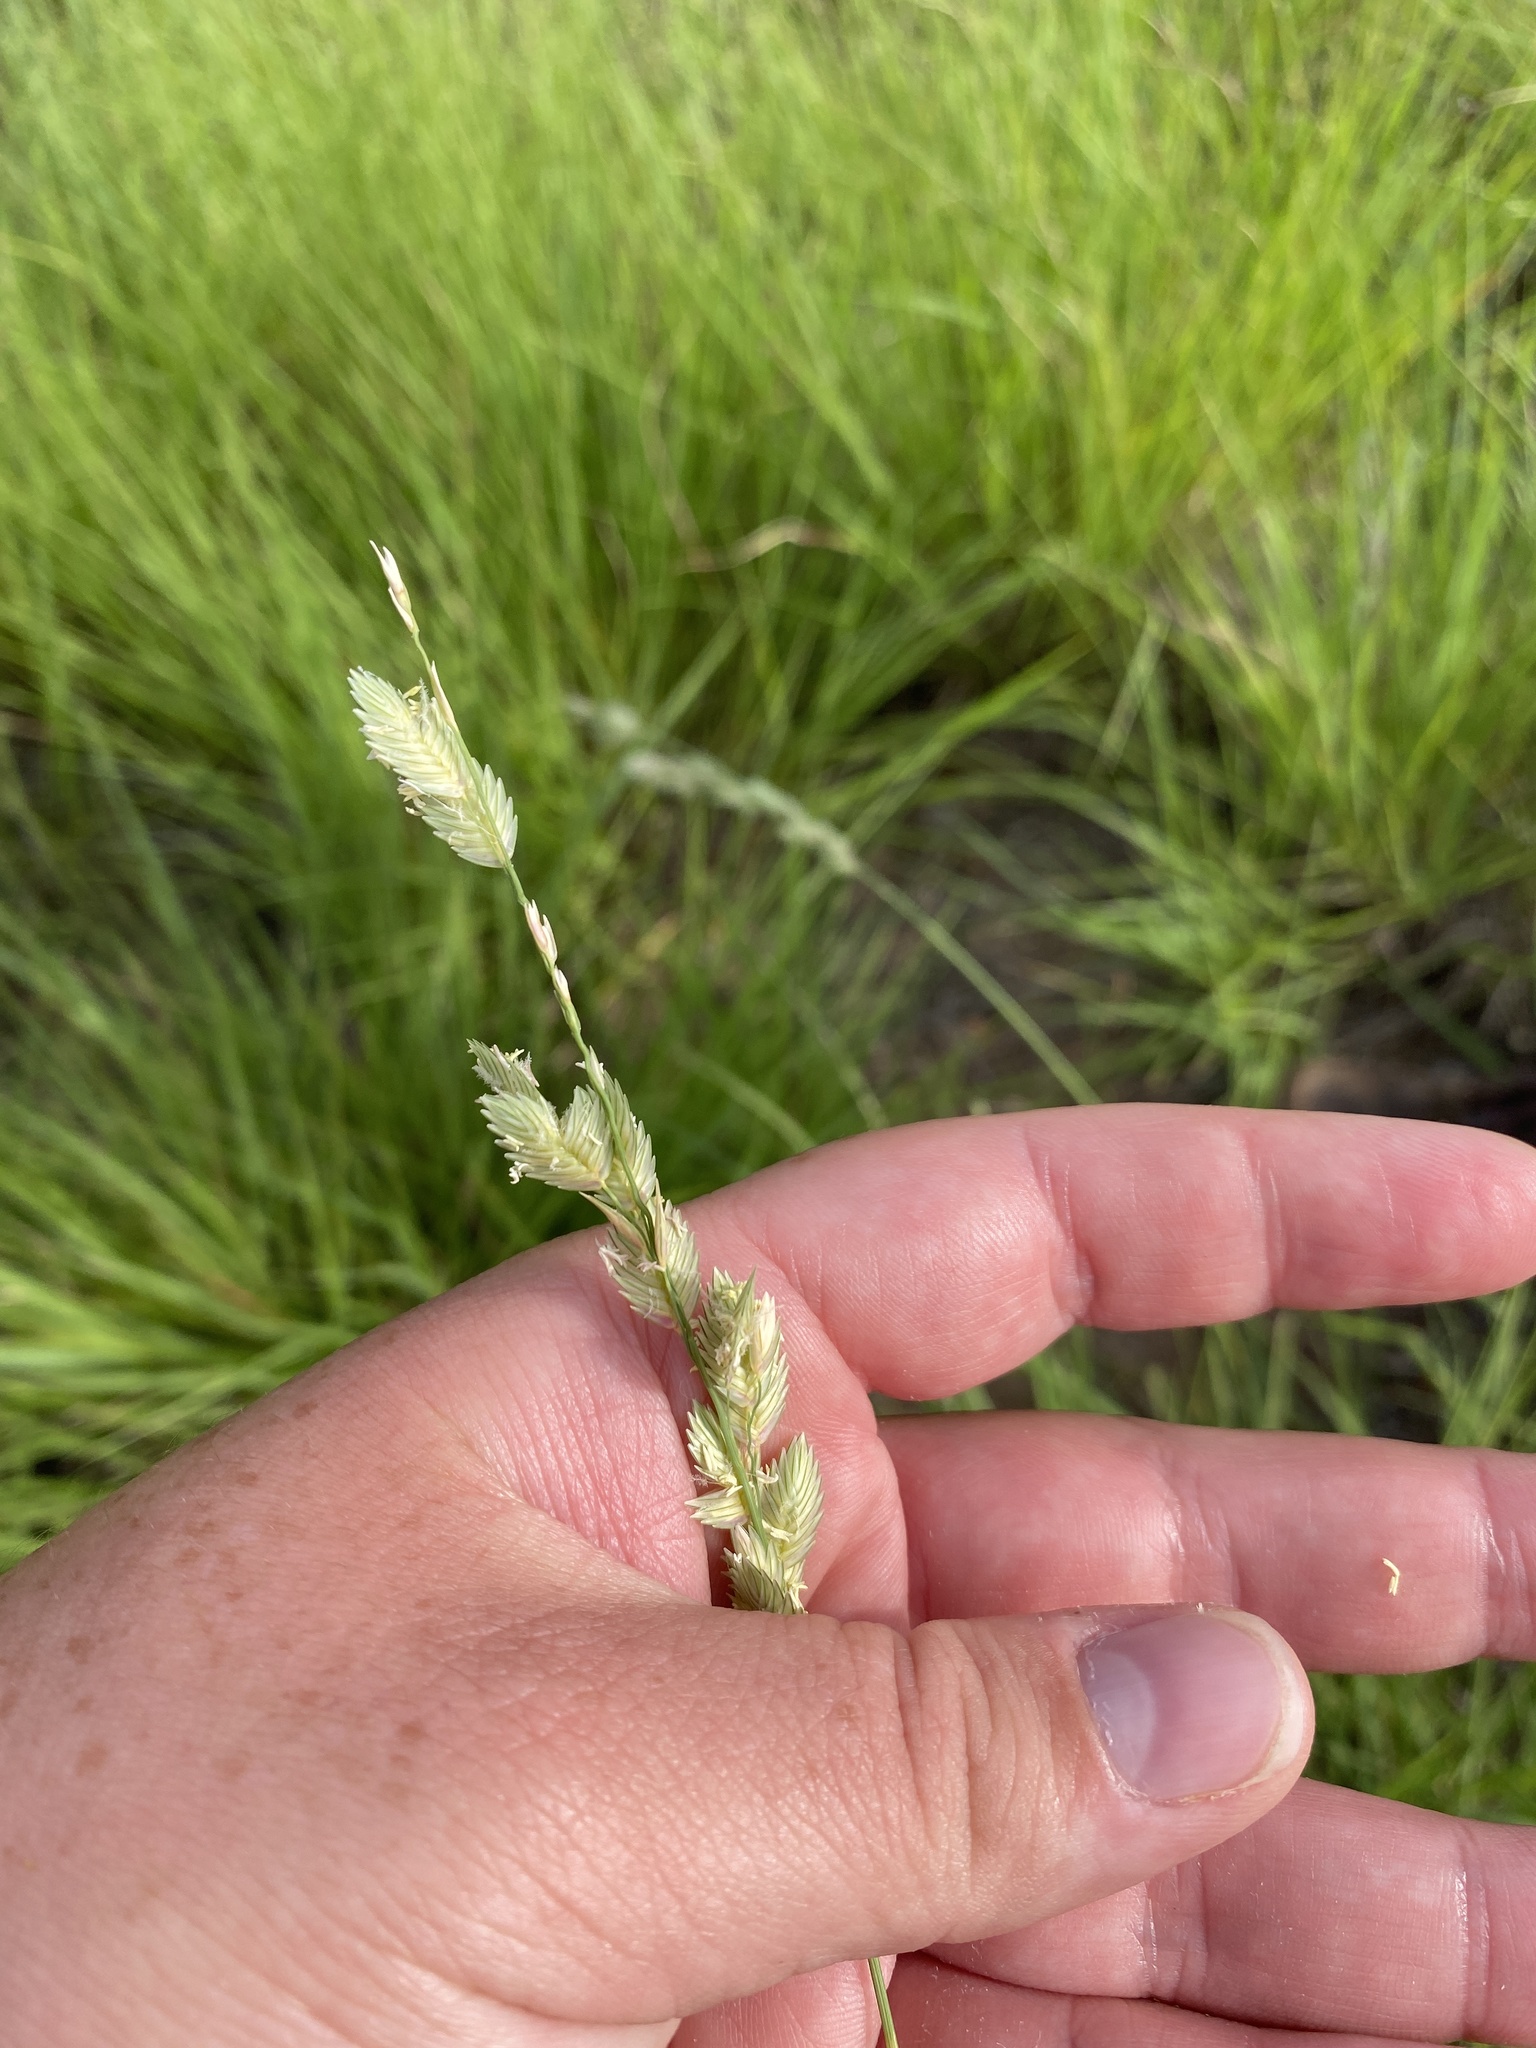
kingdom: Plantae
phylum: Tracheophyta
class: Liliopsida
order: Poales
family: Poaceae
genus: Eragrostis
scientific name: Eragrostis superba
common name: Wilman lovegrass
